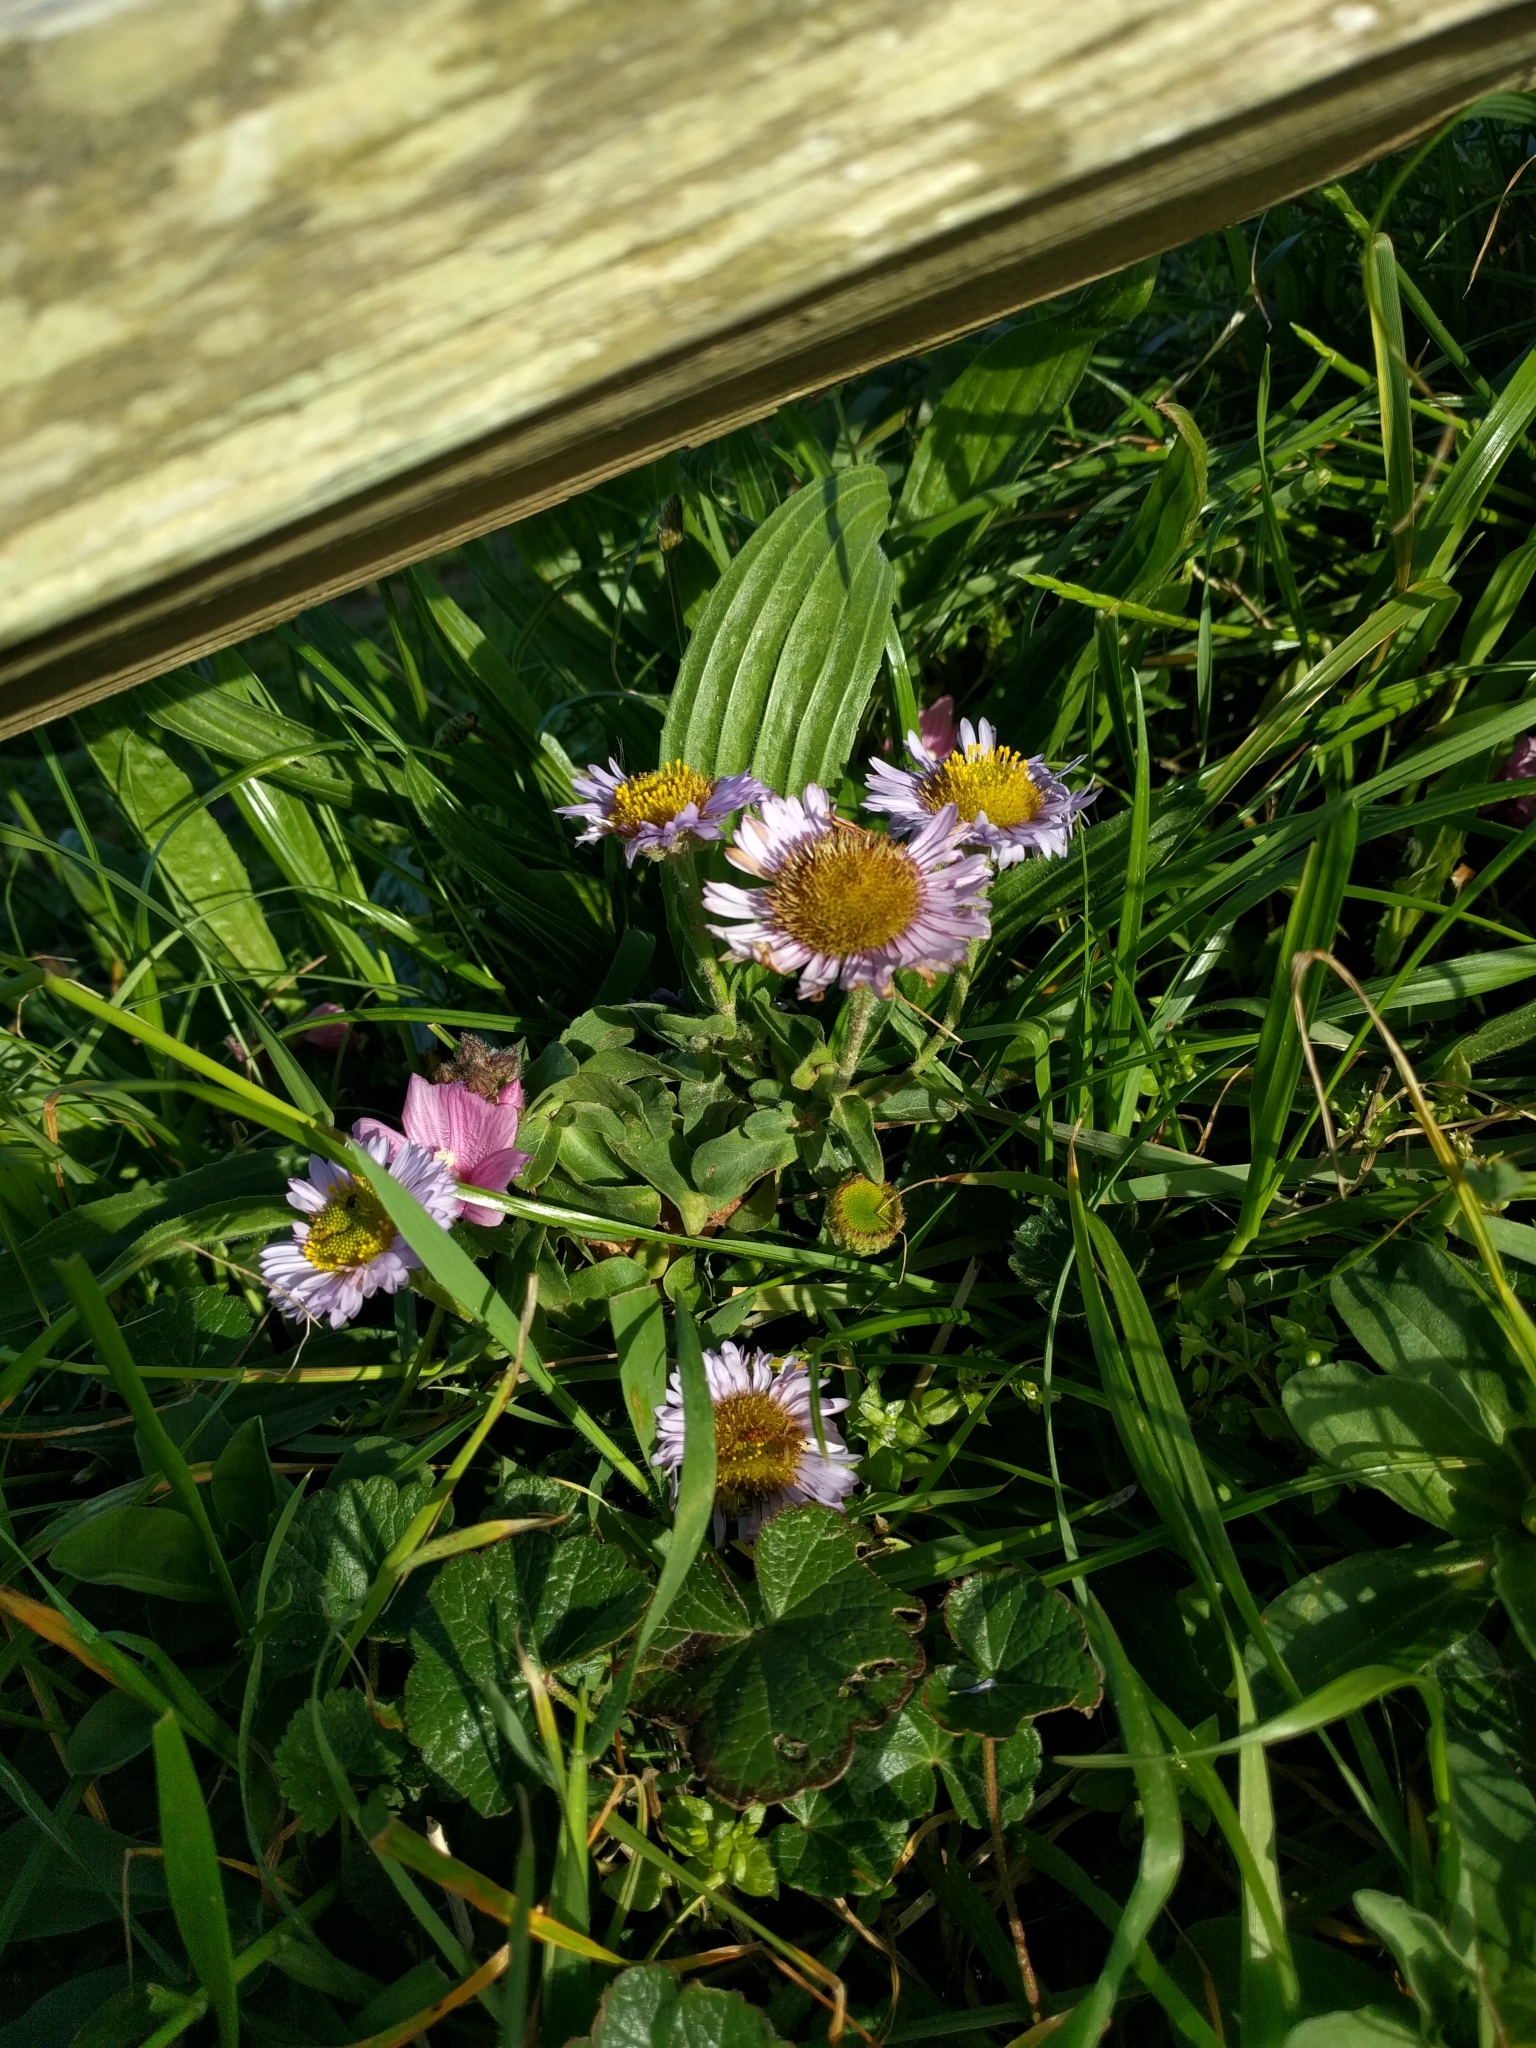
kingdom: Plantae
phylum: Tracheophyta
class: Magnoliopsida
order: Asterales
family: Asteraceae
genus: Erigeron
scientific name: Erigeron glaucus
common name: Seaside daisy
